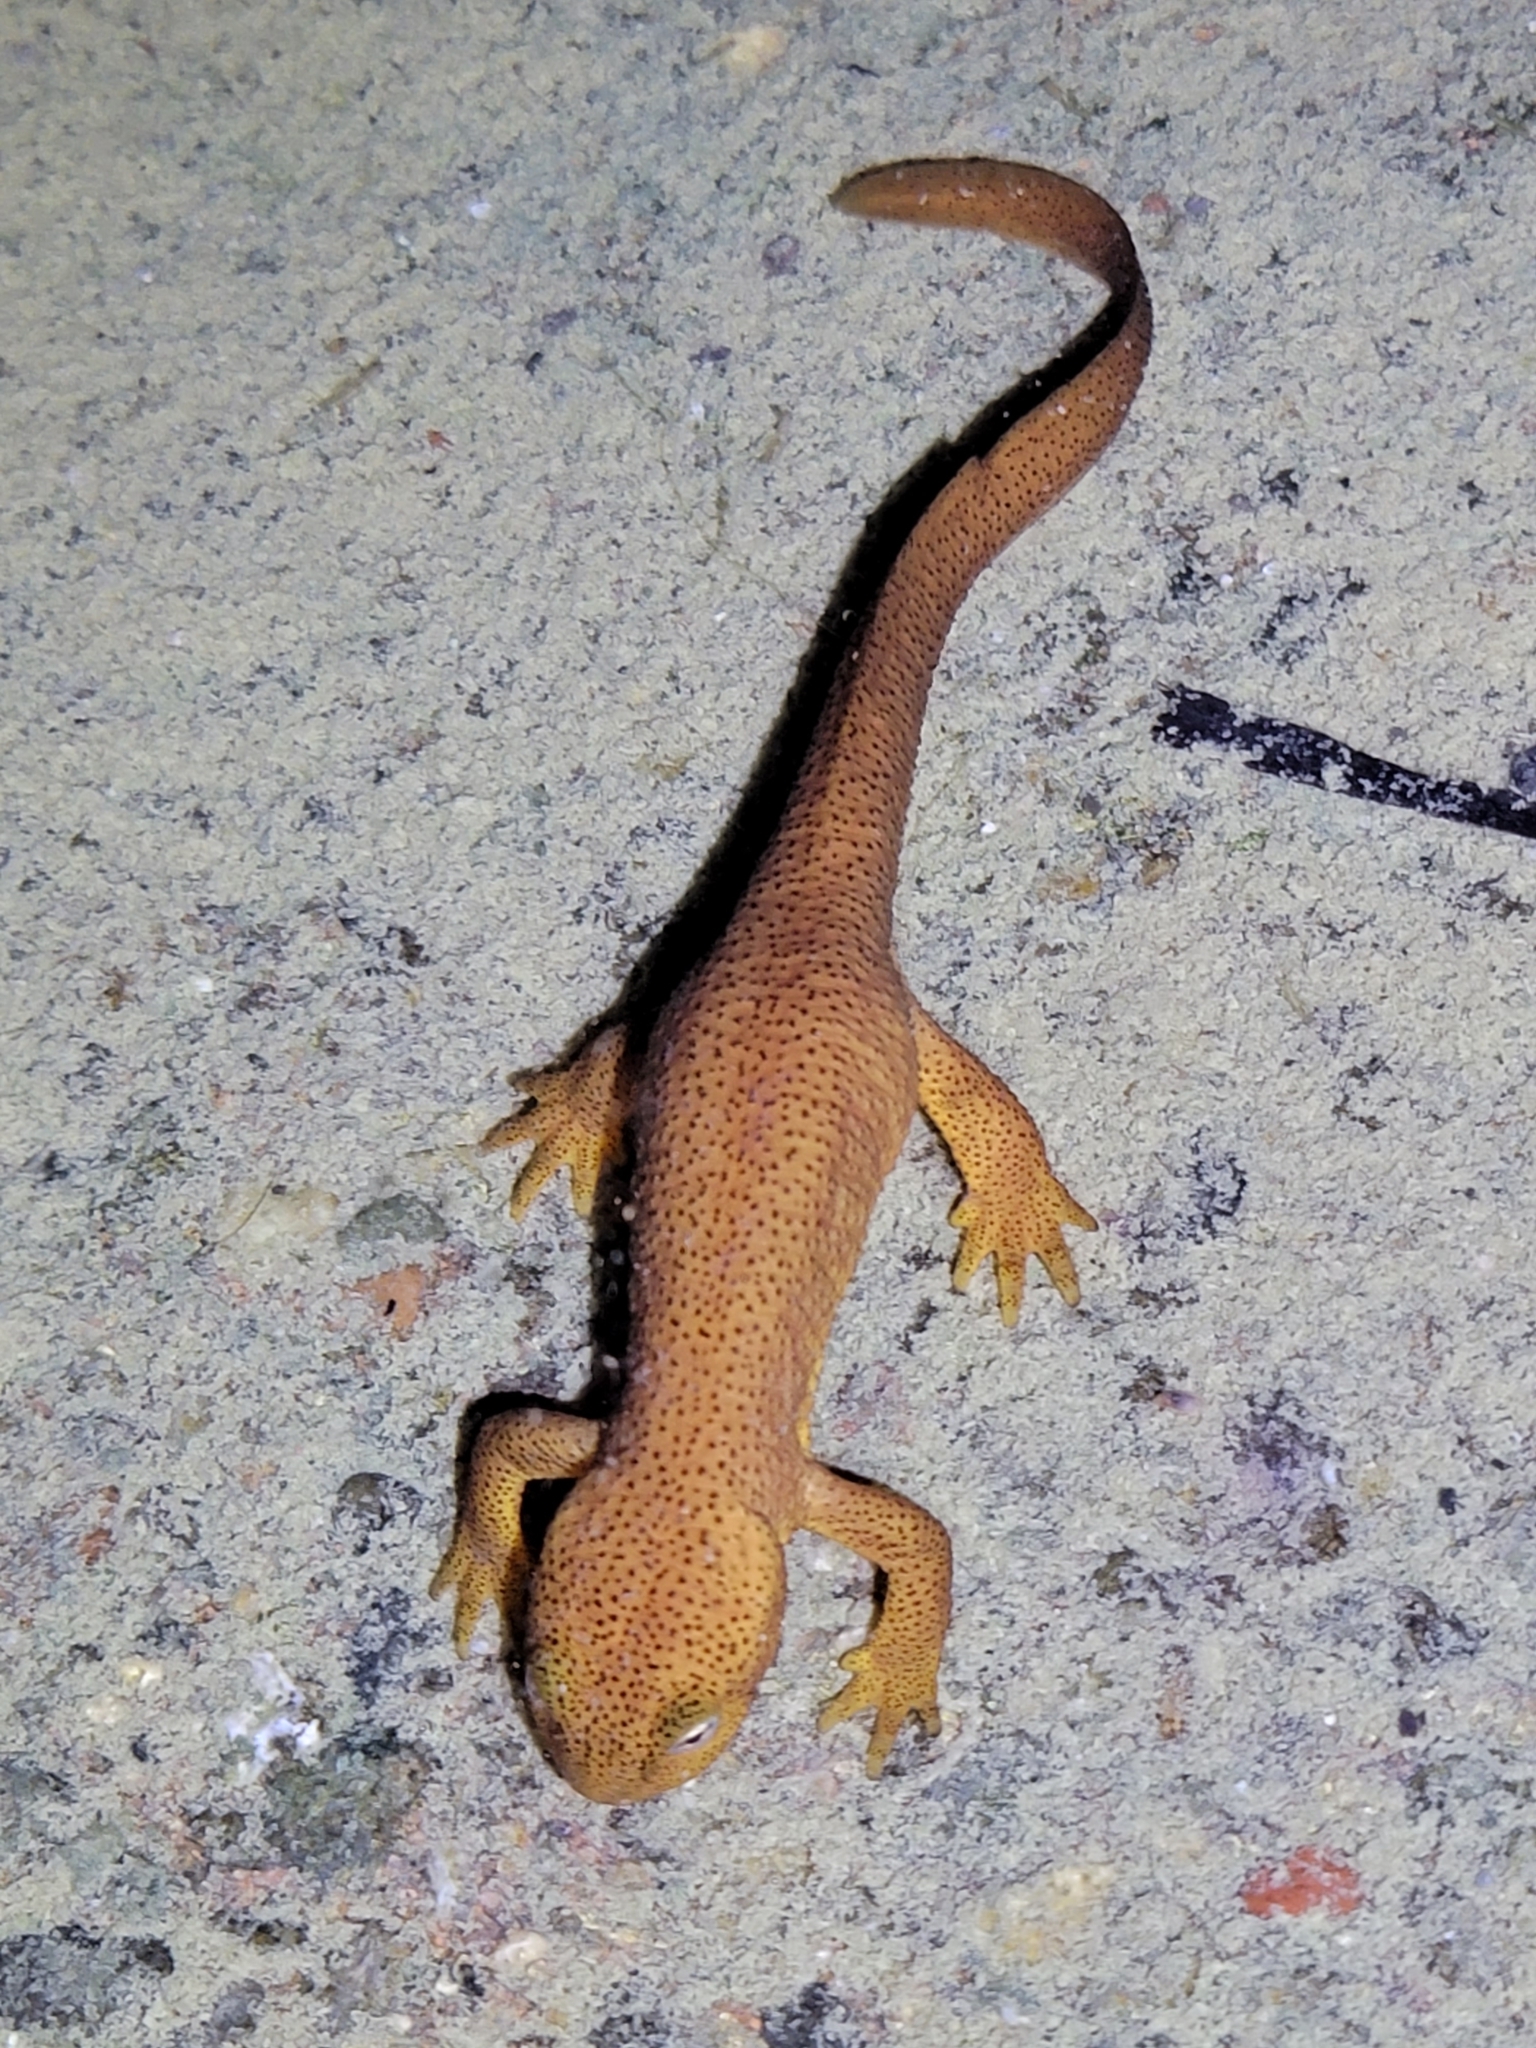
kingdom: Animalia
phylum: Chordata
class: Amphibia
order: Caudata
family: Salamandridae
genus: Taricha
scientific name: Taricha granulosa
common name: Roughskin newt
